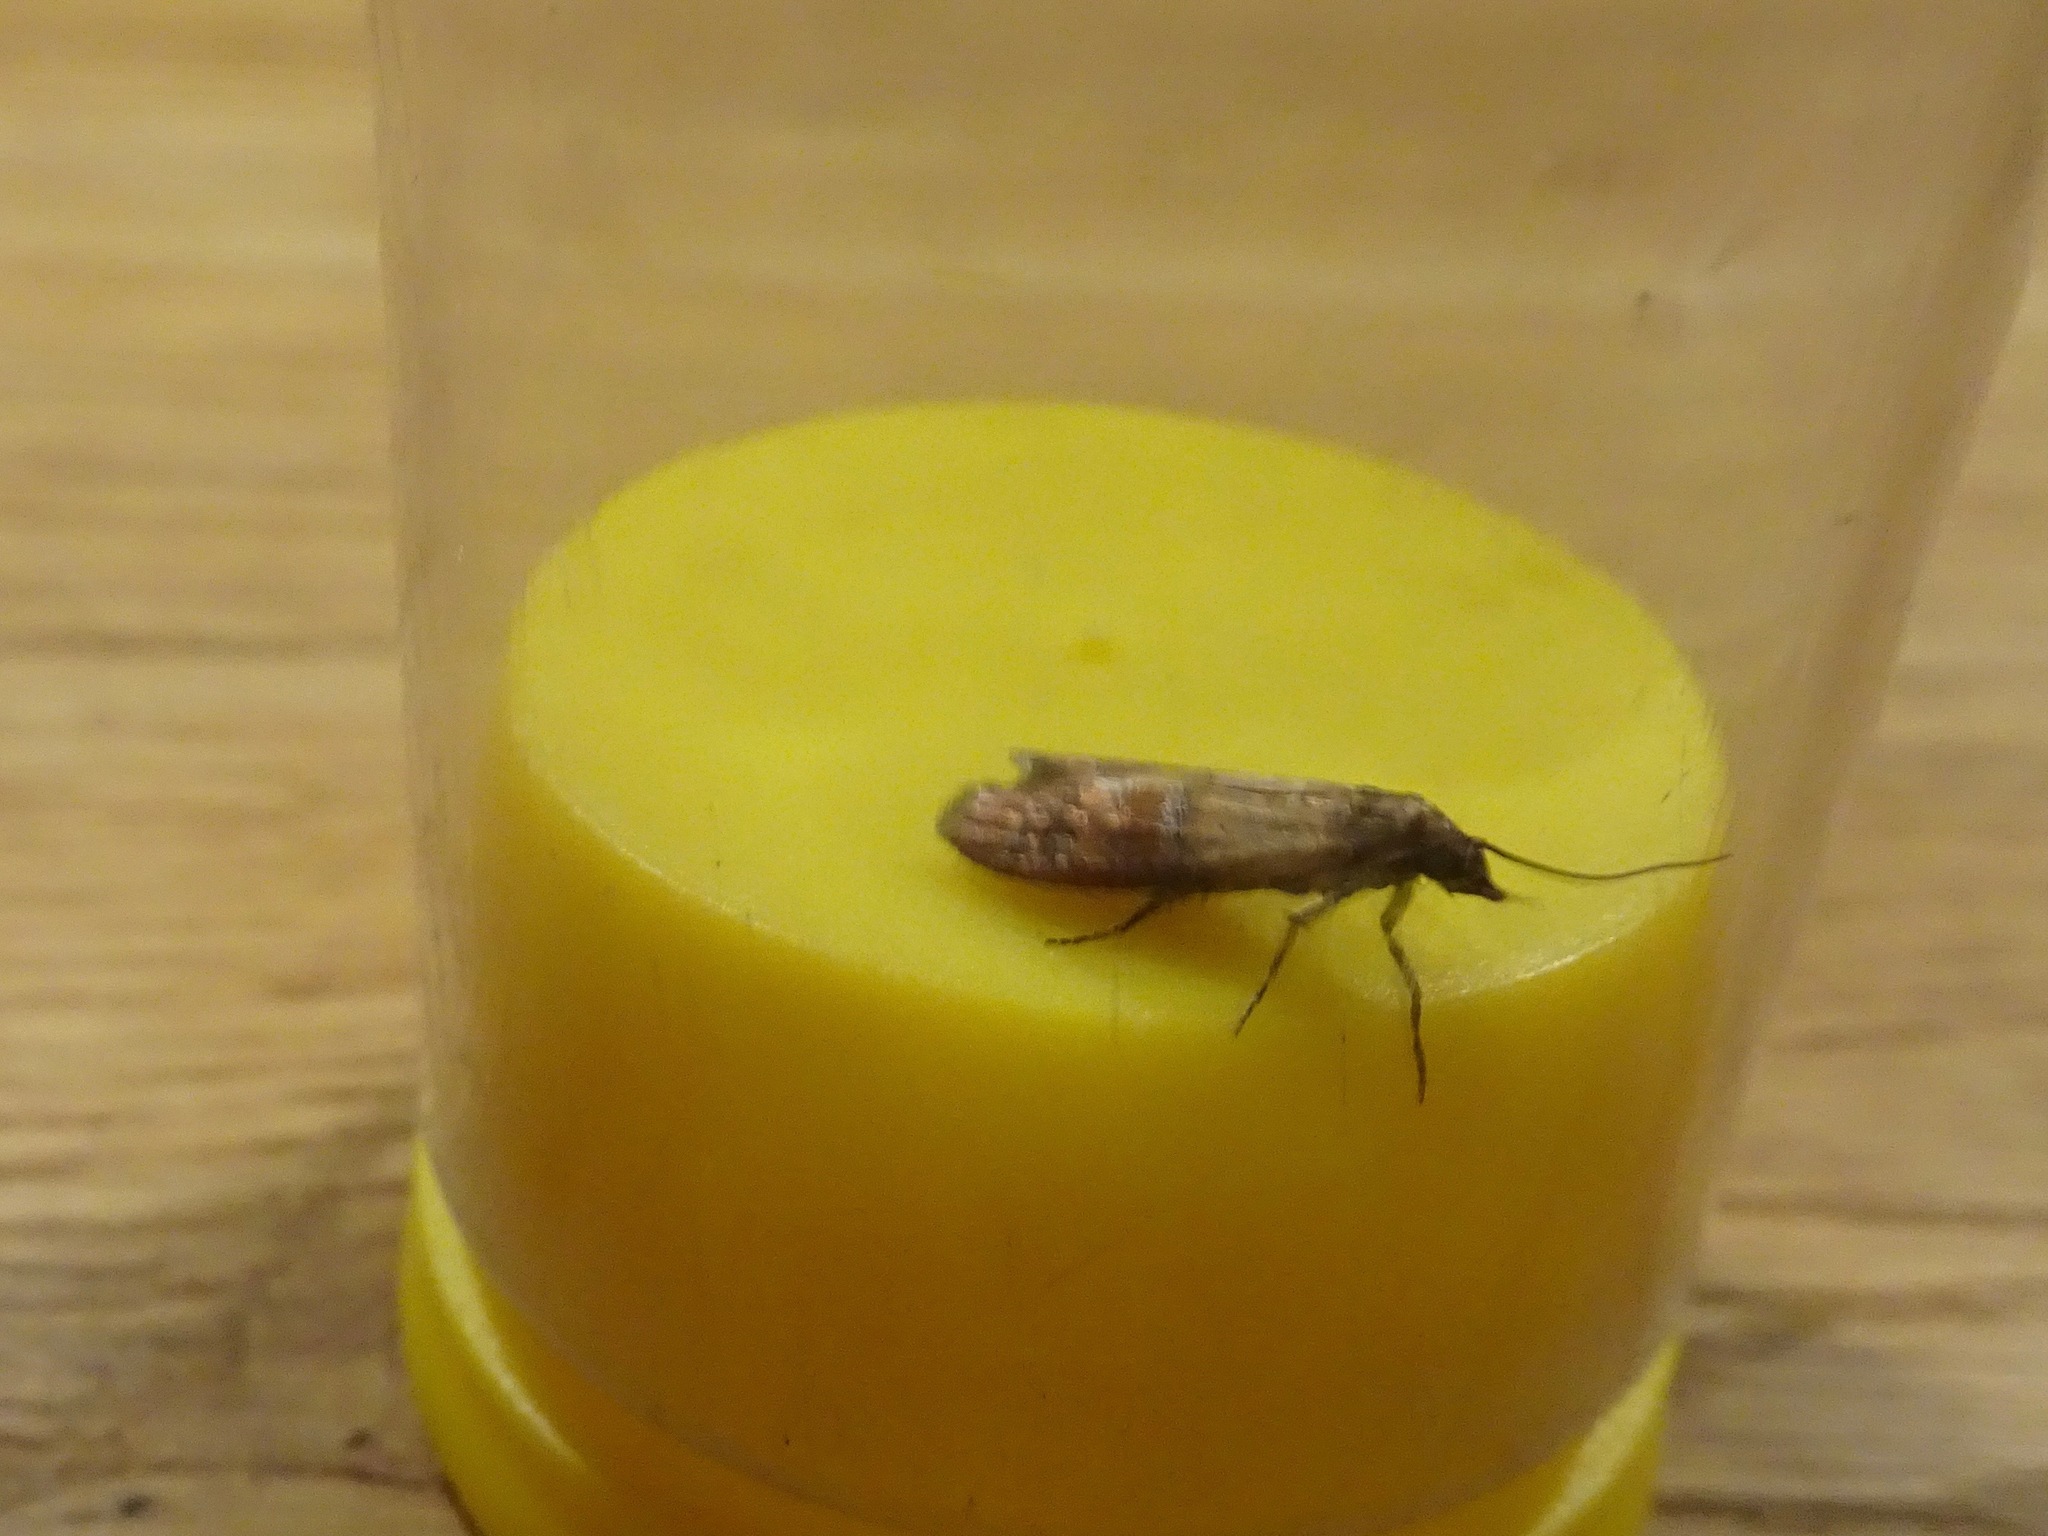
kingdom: Animalia
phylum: Arthropoda
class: Insecta
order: Lepidoptera
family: Pyralidae
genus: Plodia
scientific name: Plodia interpunctella
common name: Indian meal moth
